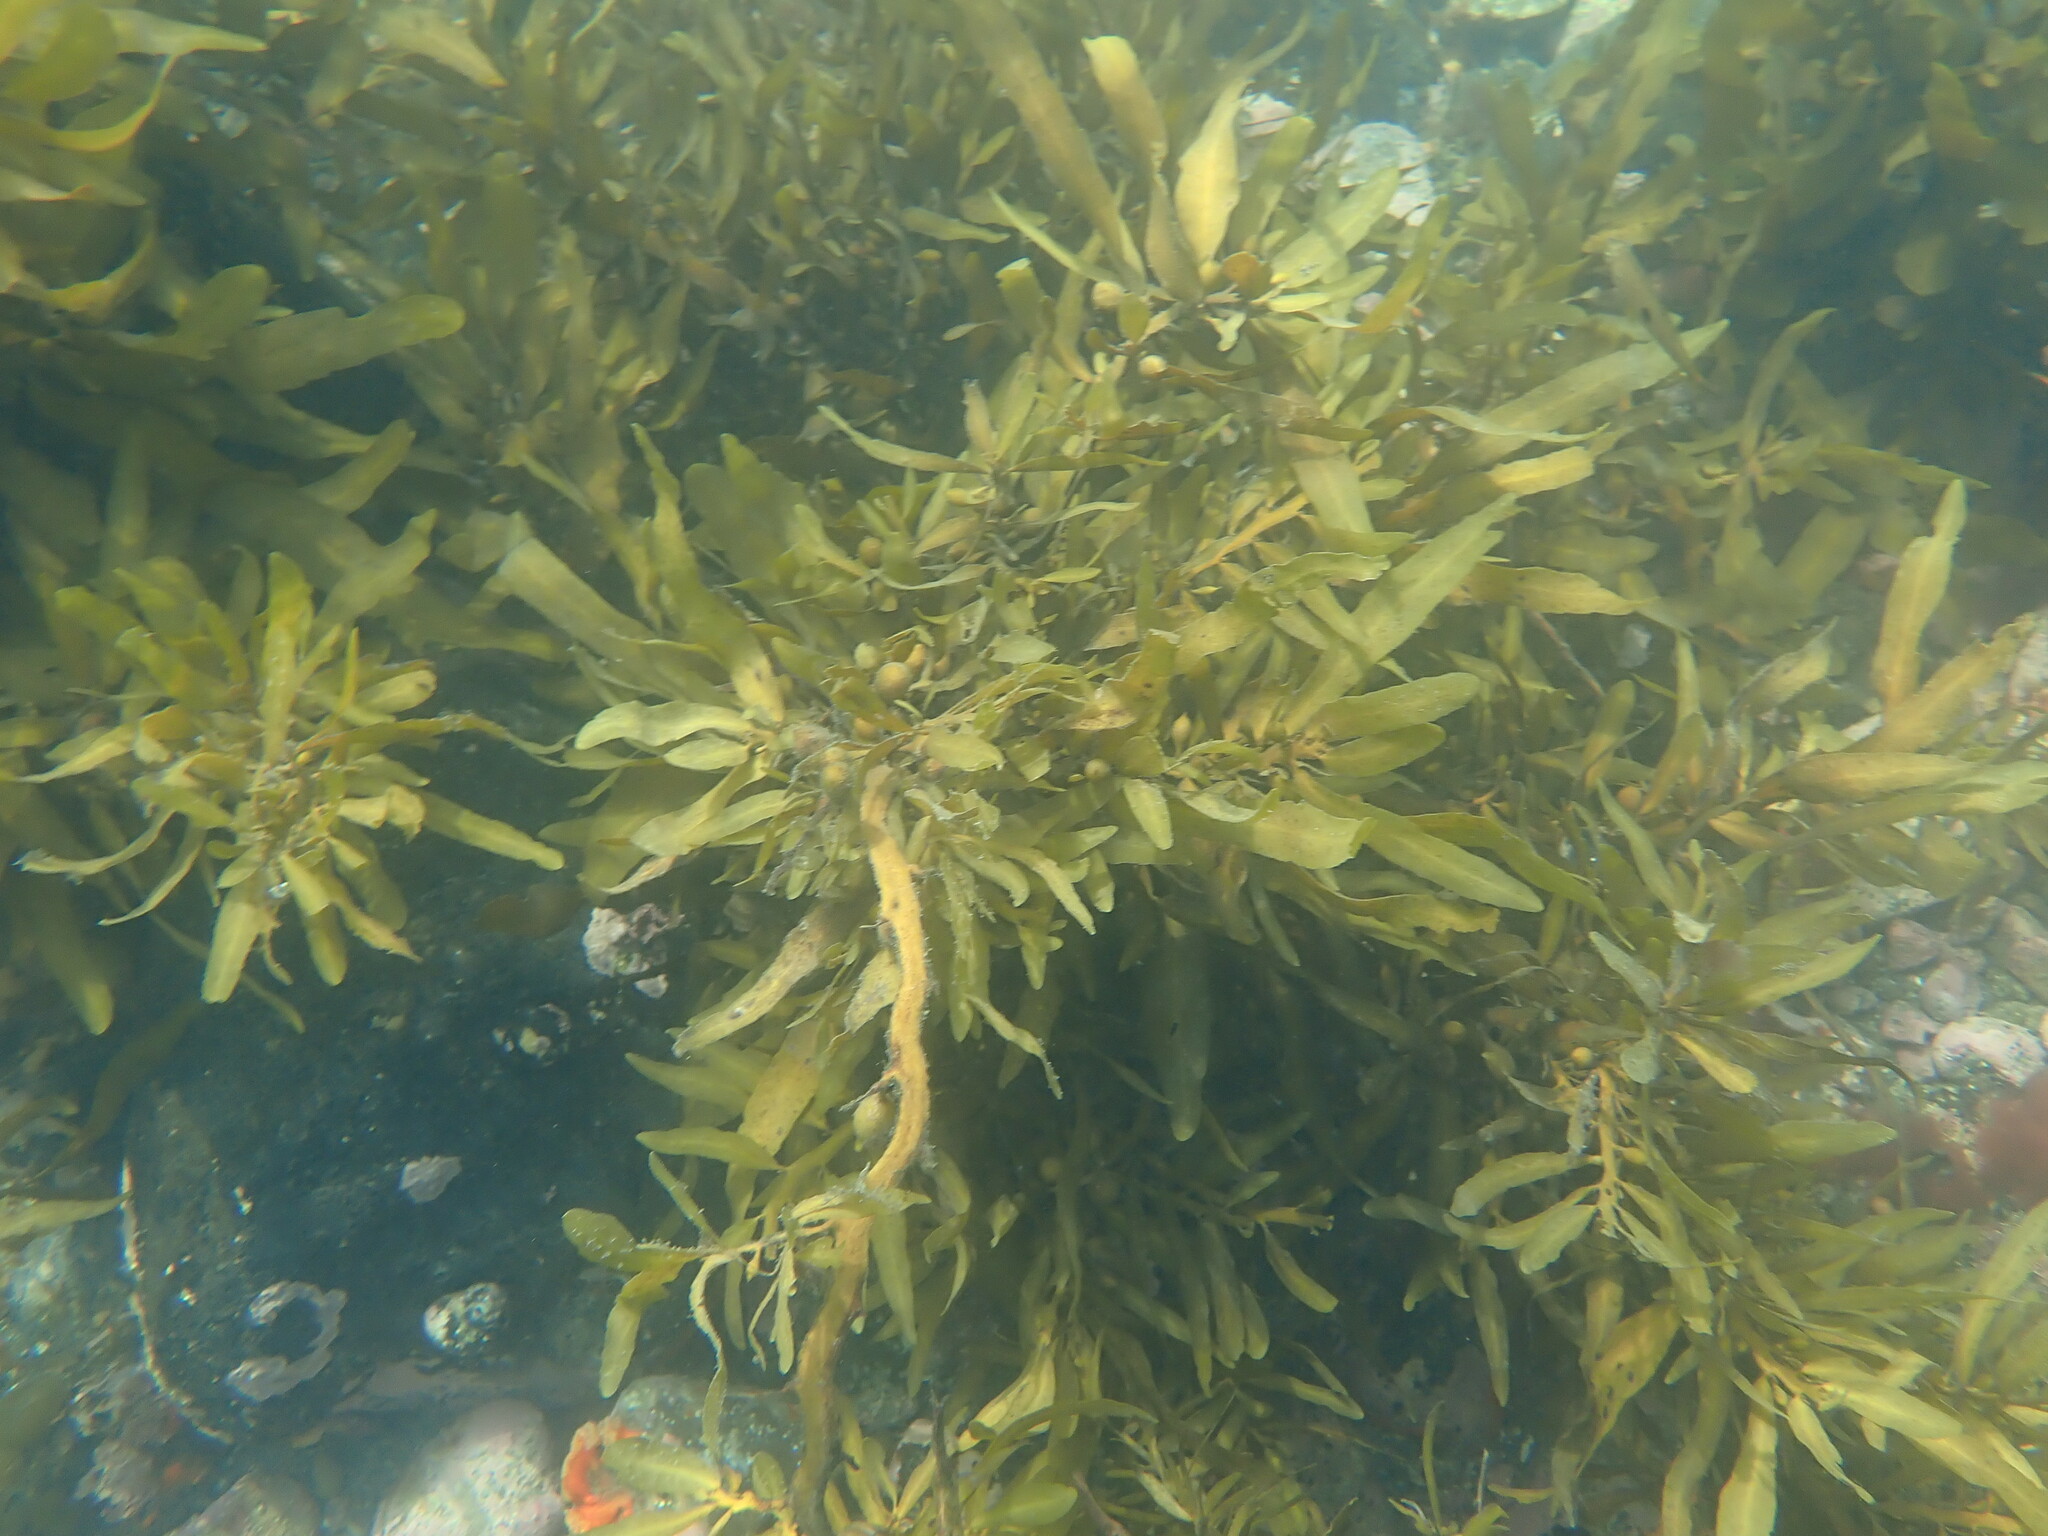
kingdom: Chromista
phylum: Ochrophyta
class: Phaeophyceae
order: Fucales
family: Sargassaceae
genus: Carpophyllum
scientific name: Carpophyllum flexuosum
